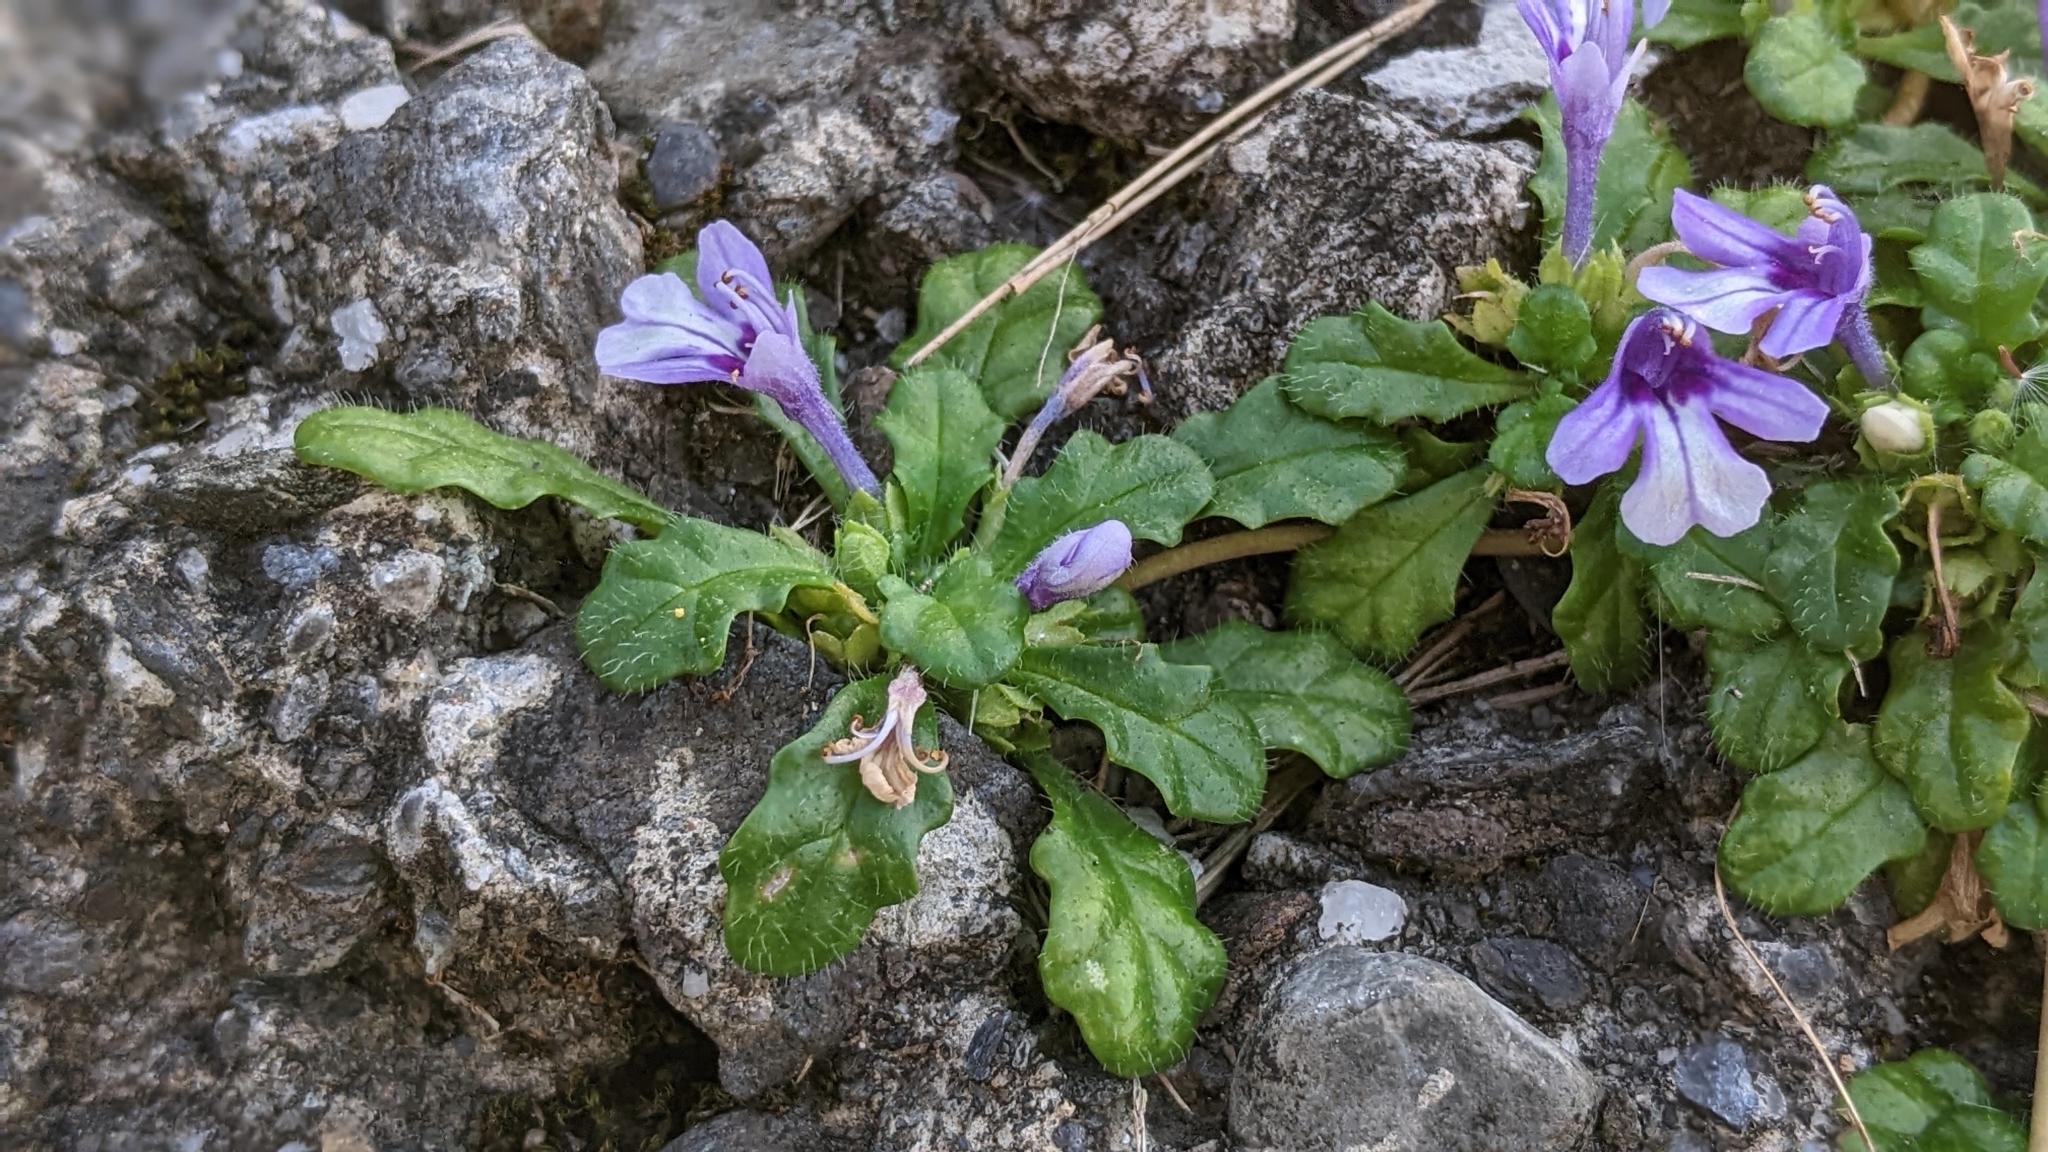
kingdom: Plantae
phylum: Tracheophyta
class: Magnoliopsida
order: Lamiales
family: Lamiaceae
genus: Ajuga
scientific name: Ajuga pygmaea
